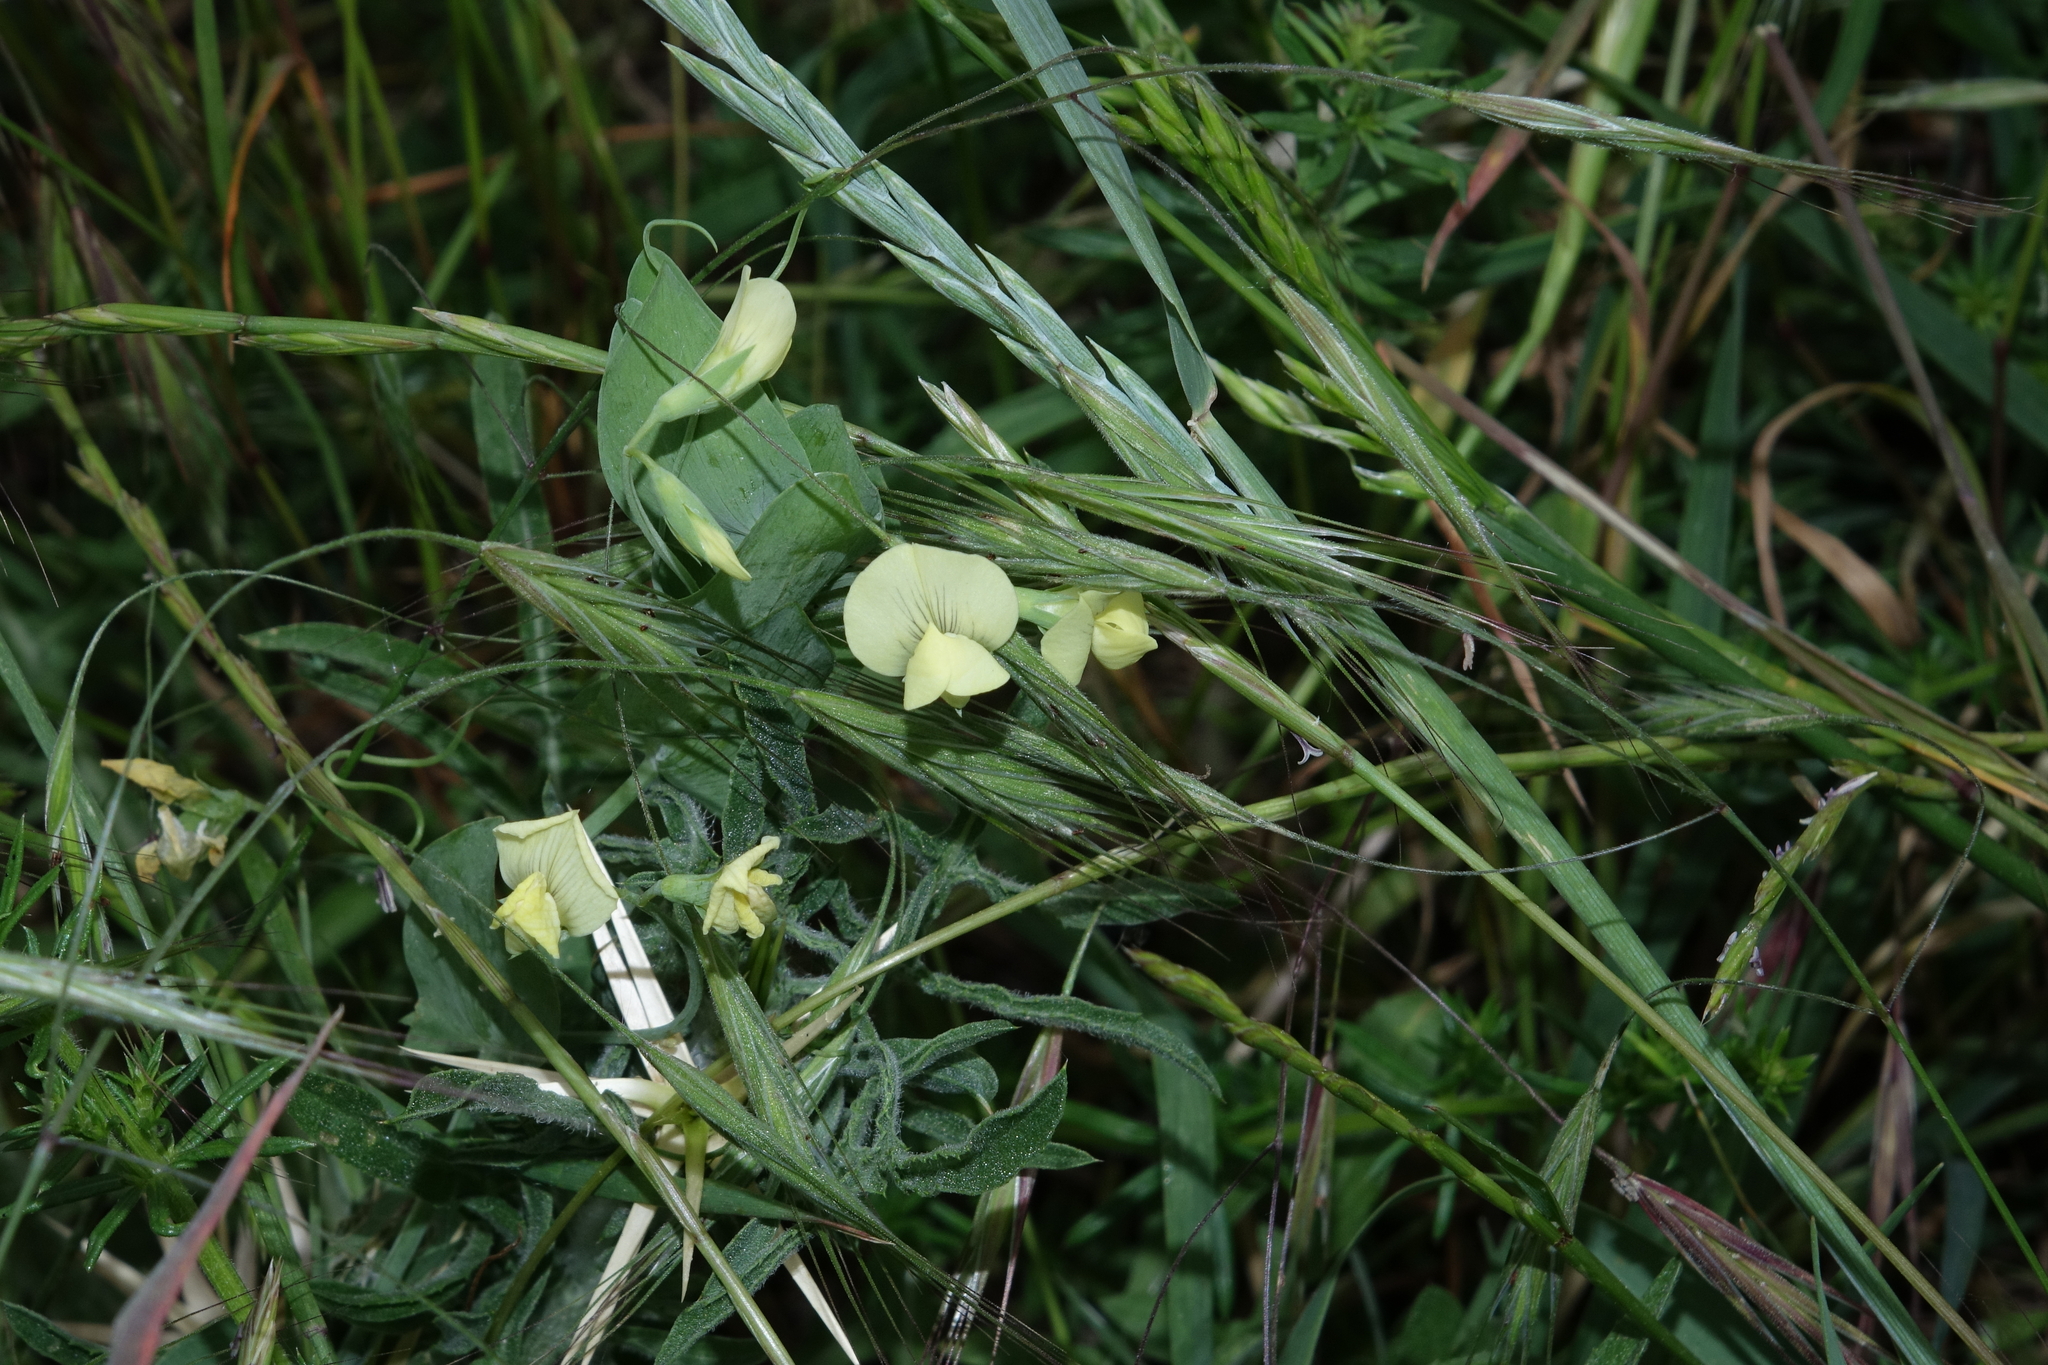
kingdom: Plantae
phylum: Tracheophyta
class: Magnoliopsida
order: Fabales
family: Fabaceae
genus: Lathyrus
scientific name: Lathyrus aphaca
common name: Yellow vetchling
